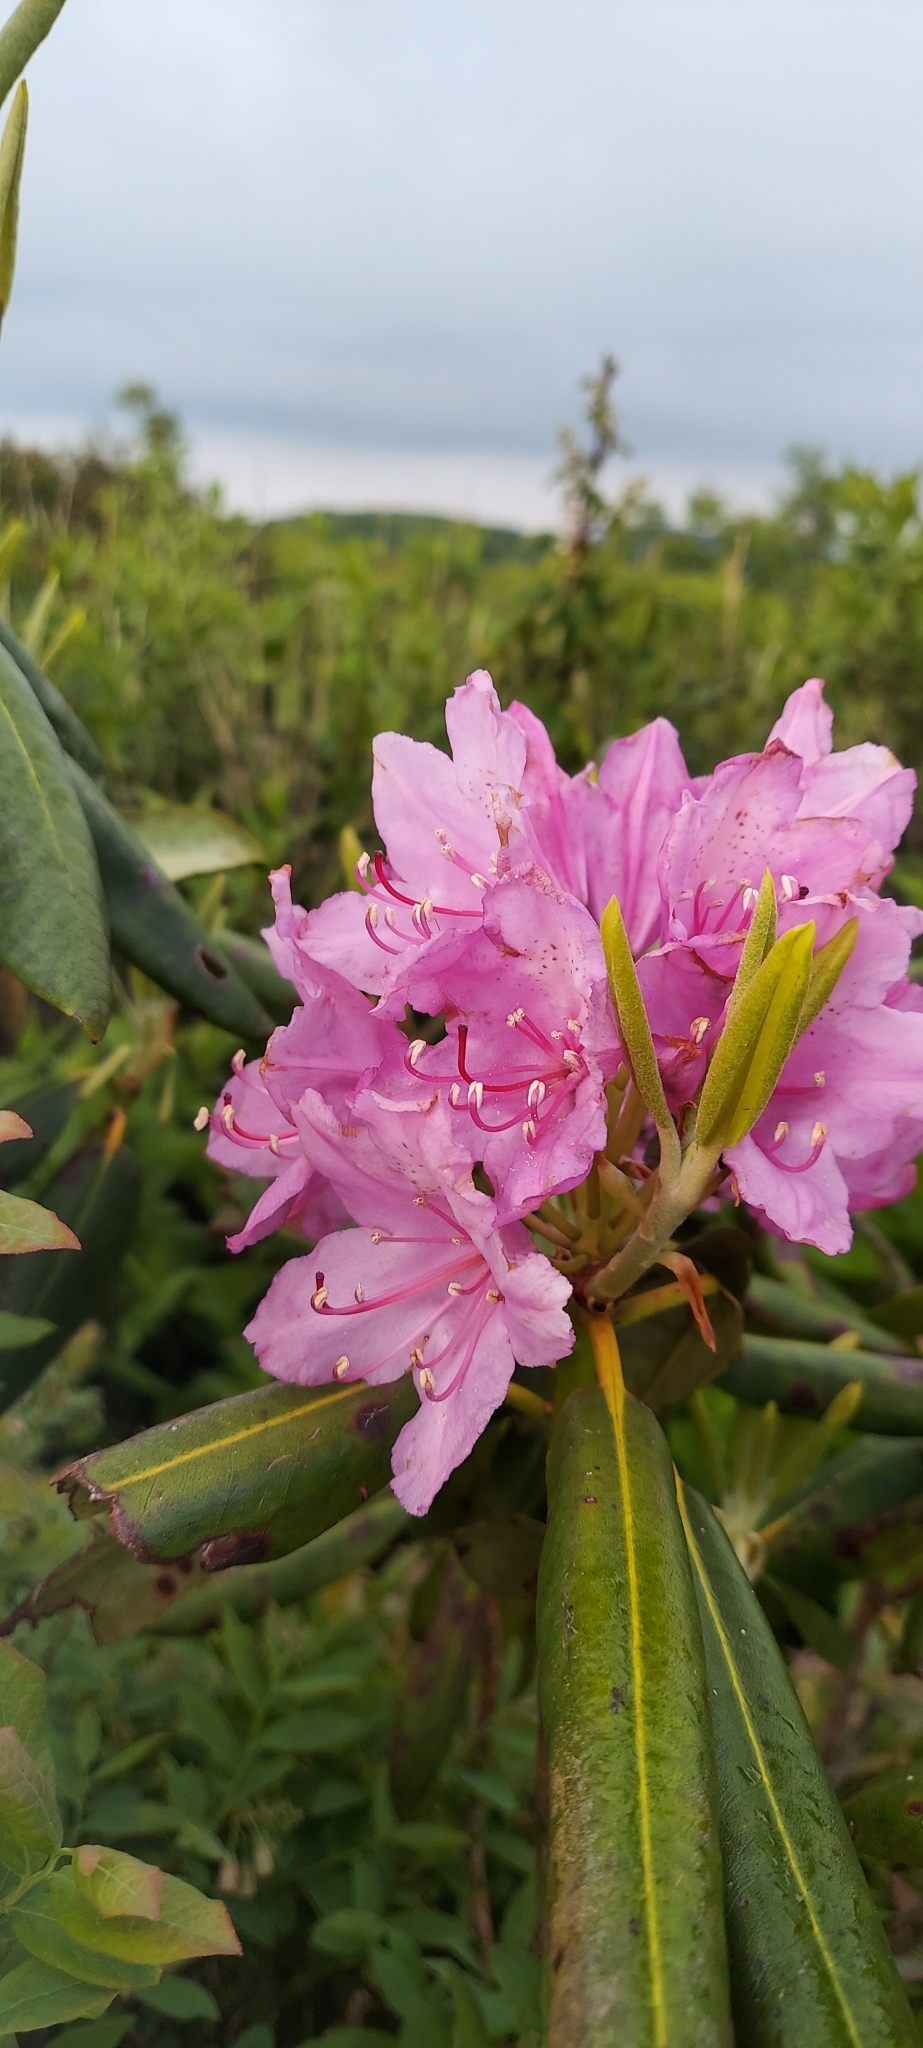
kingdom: Plantae
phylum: Tracheophyta
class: Magnoliopsida
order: Ericales
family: Ericaceae
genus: Rhododendron
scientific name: Rhododendron catawbiense
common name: Catawba rhododendron
